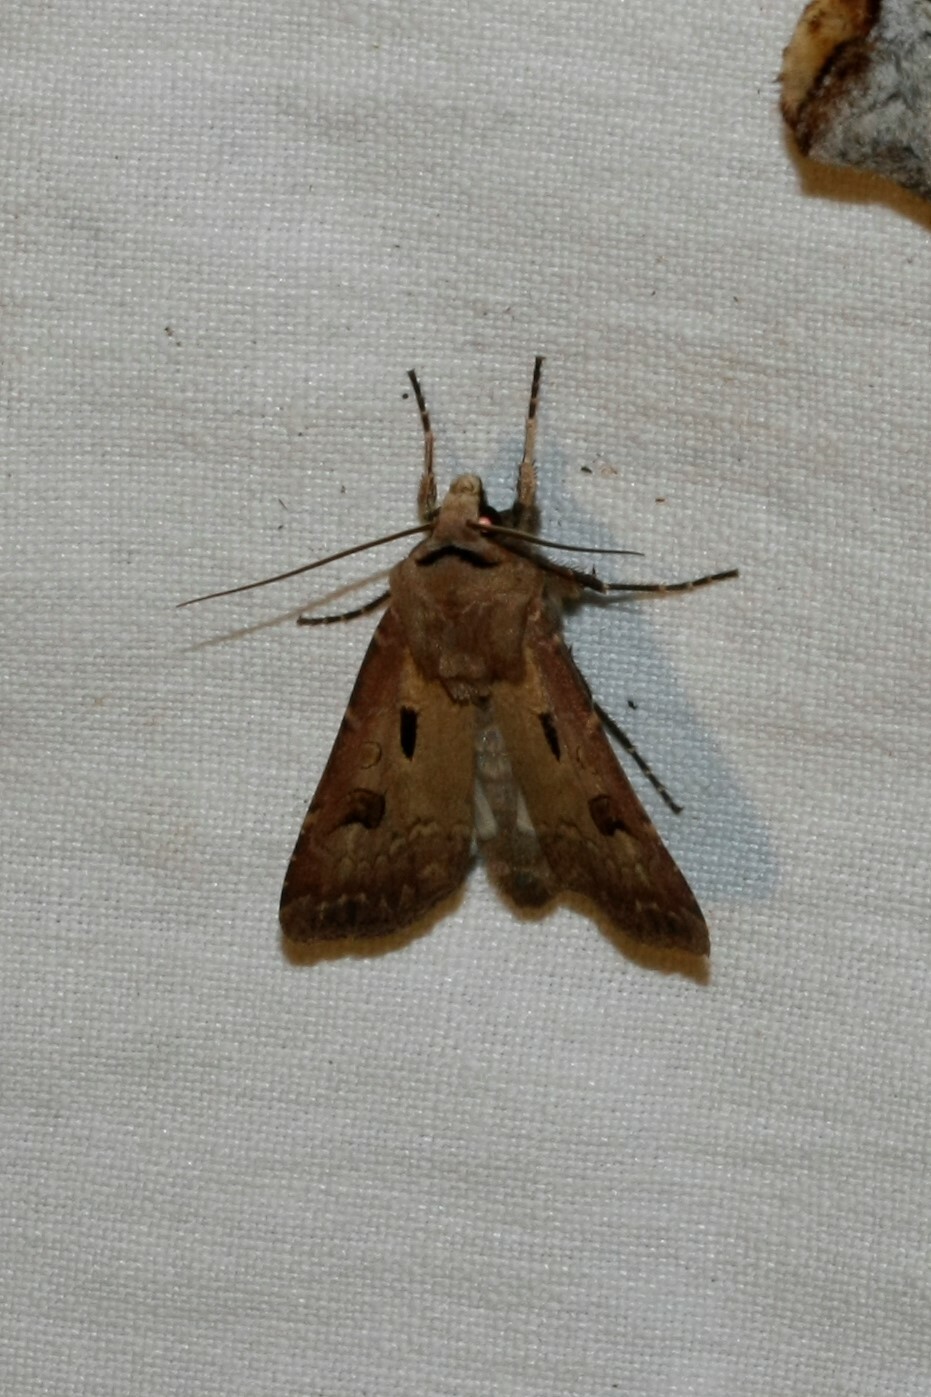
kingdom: Animalia
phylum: Arthropoda
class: Insecta
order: Lepidoptera
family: Noctuidae
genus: Agrotis
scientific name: Agrotis exclamationis
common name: Heart and dart
